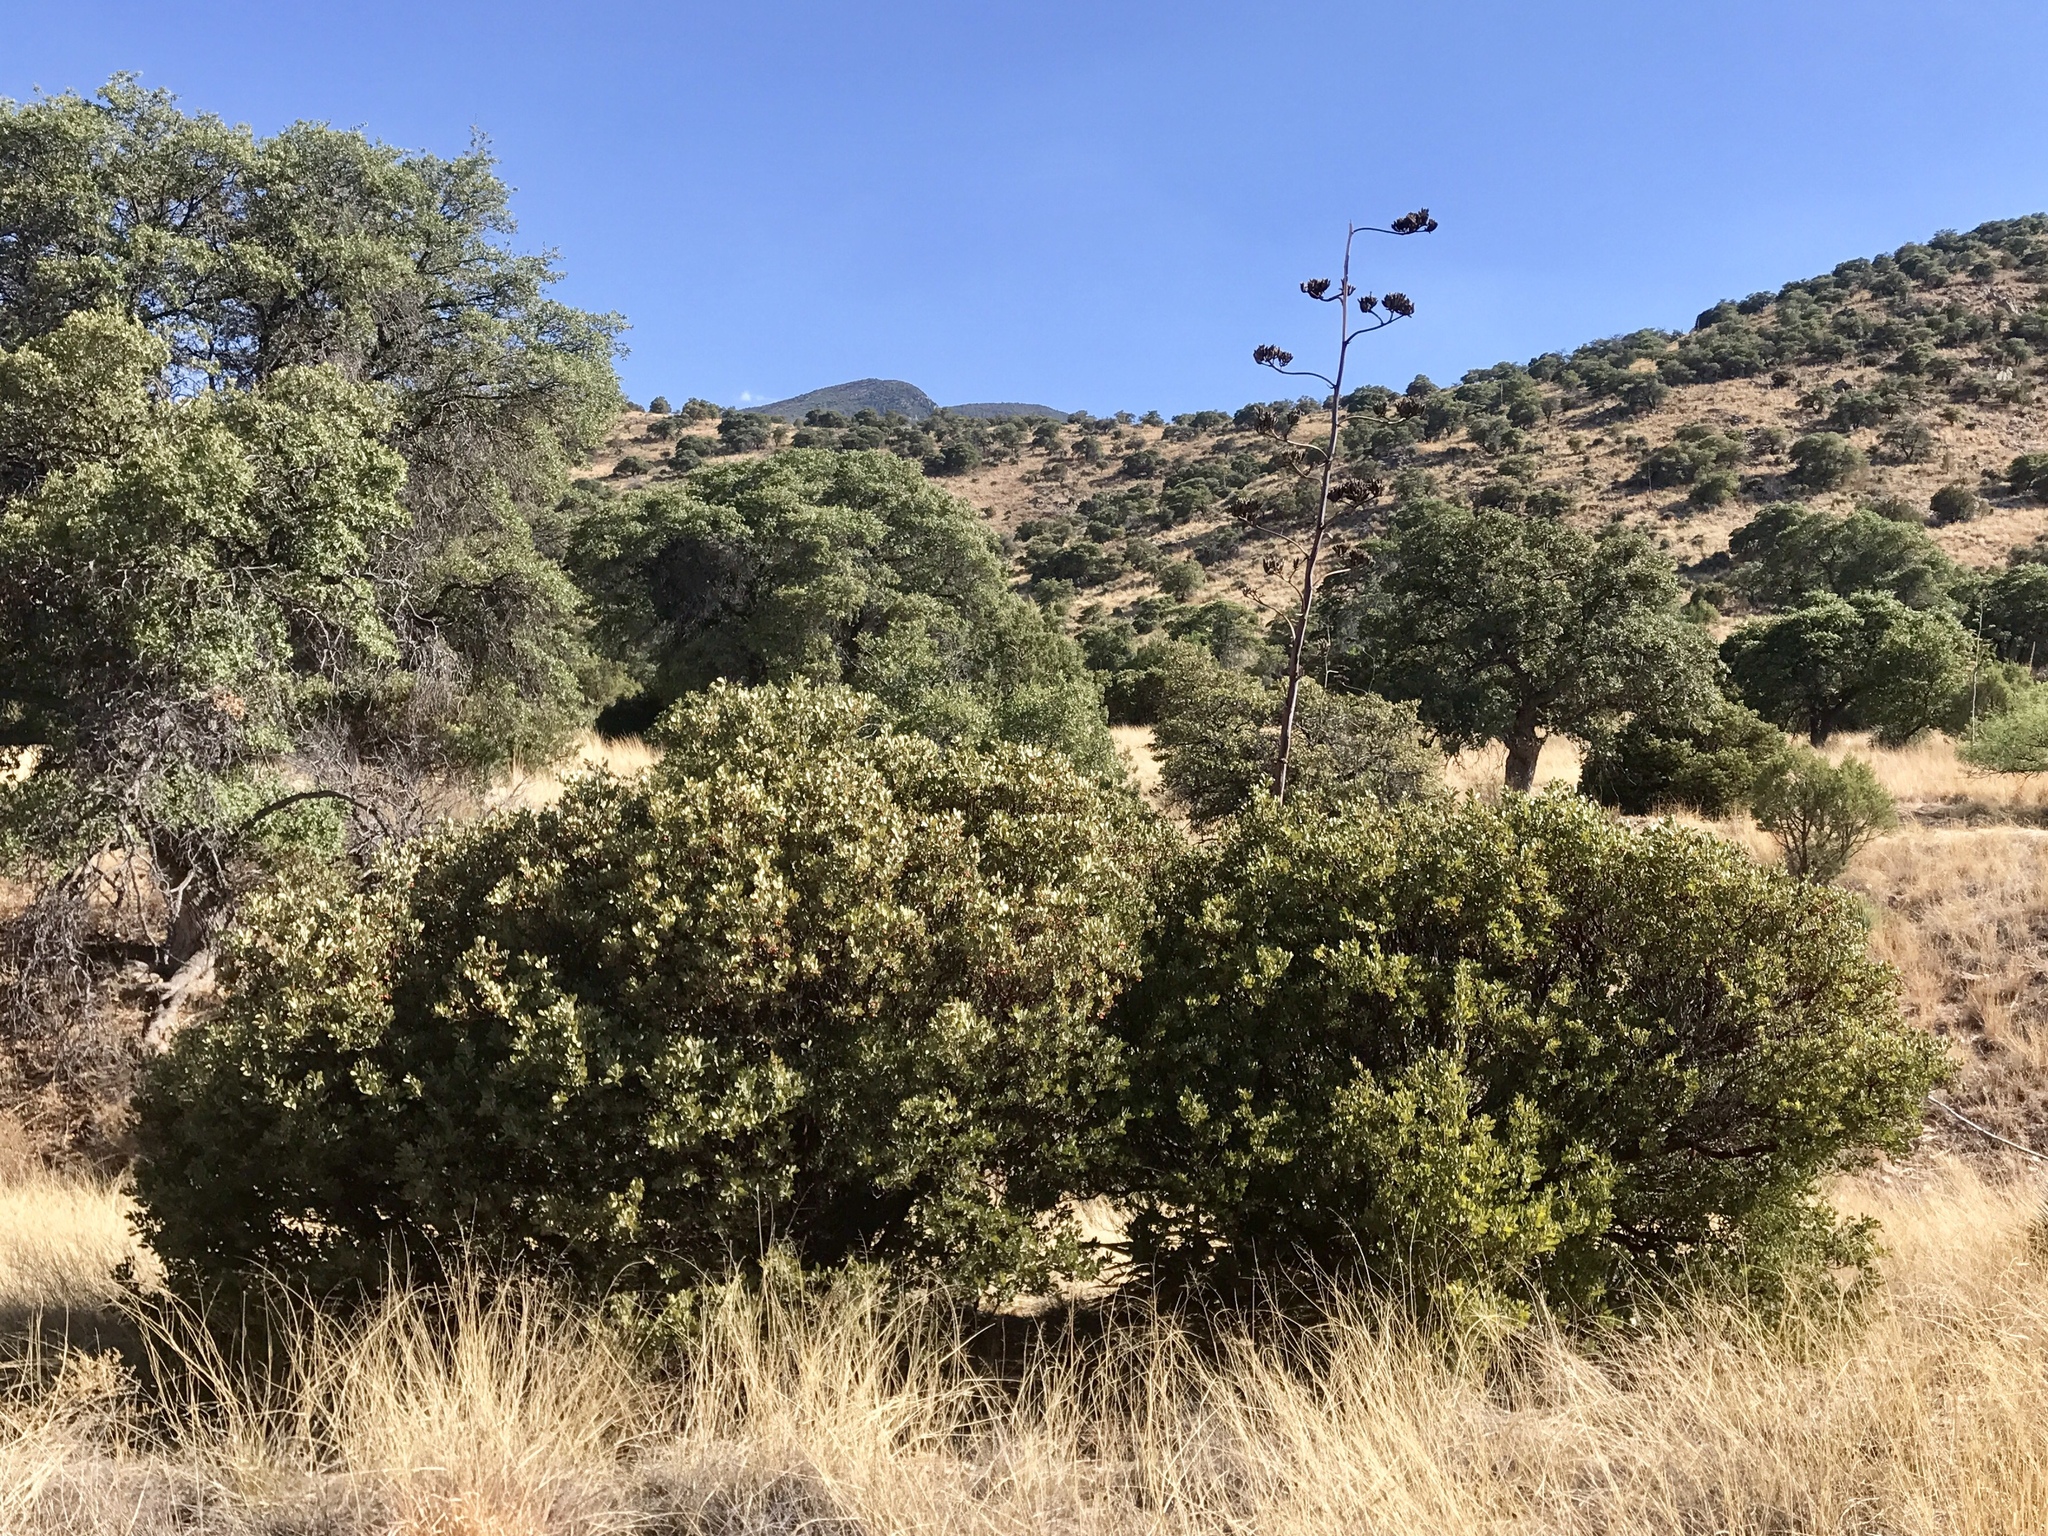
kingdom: Plantae
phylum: Tracheophyta
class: Magnoliopsida
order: Ericales
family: Ericaceae
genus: Arctostaphylos
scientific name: Arctostaphylos pungens
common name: Mexican manzanita
